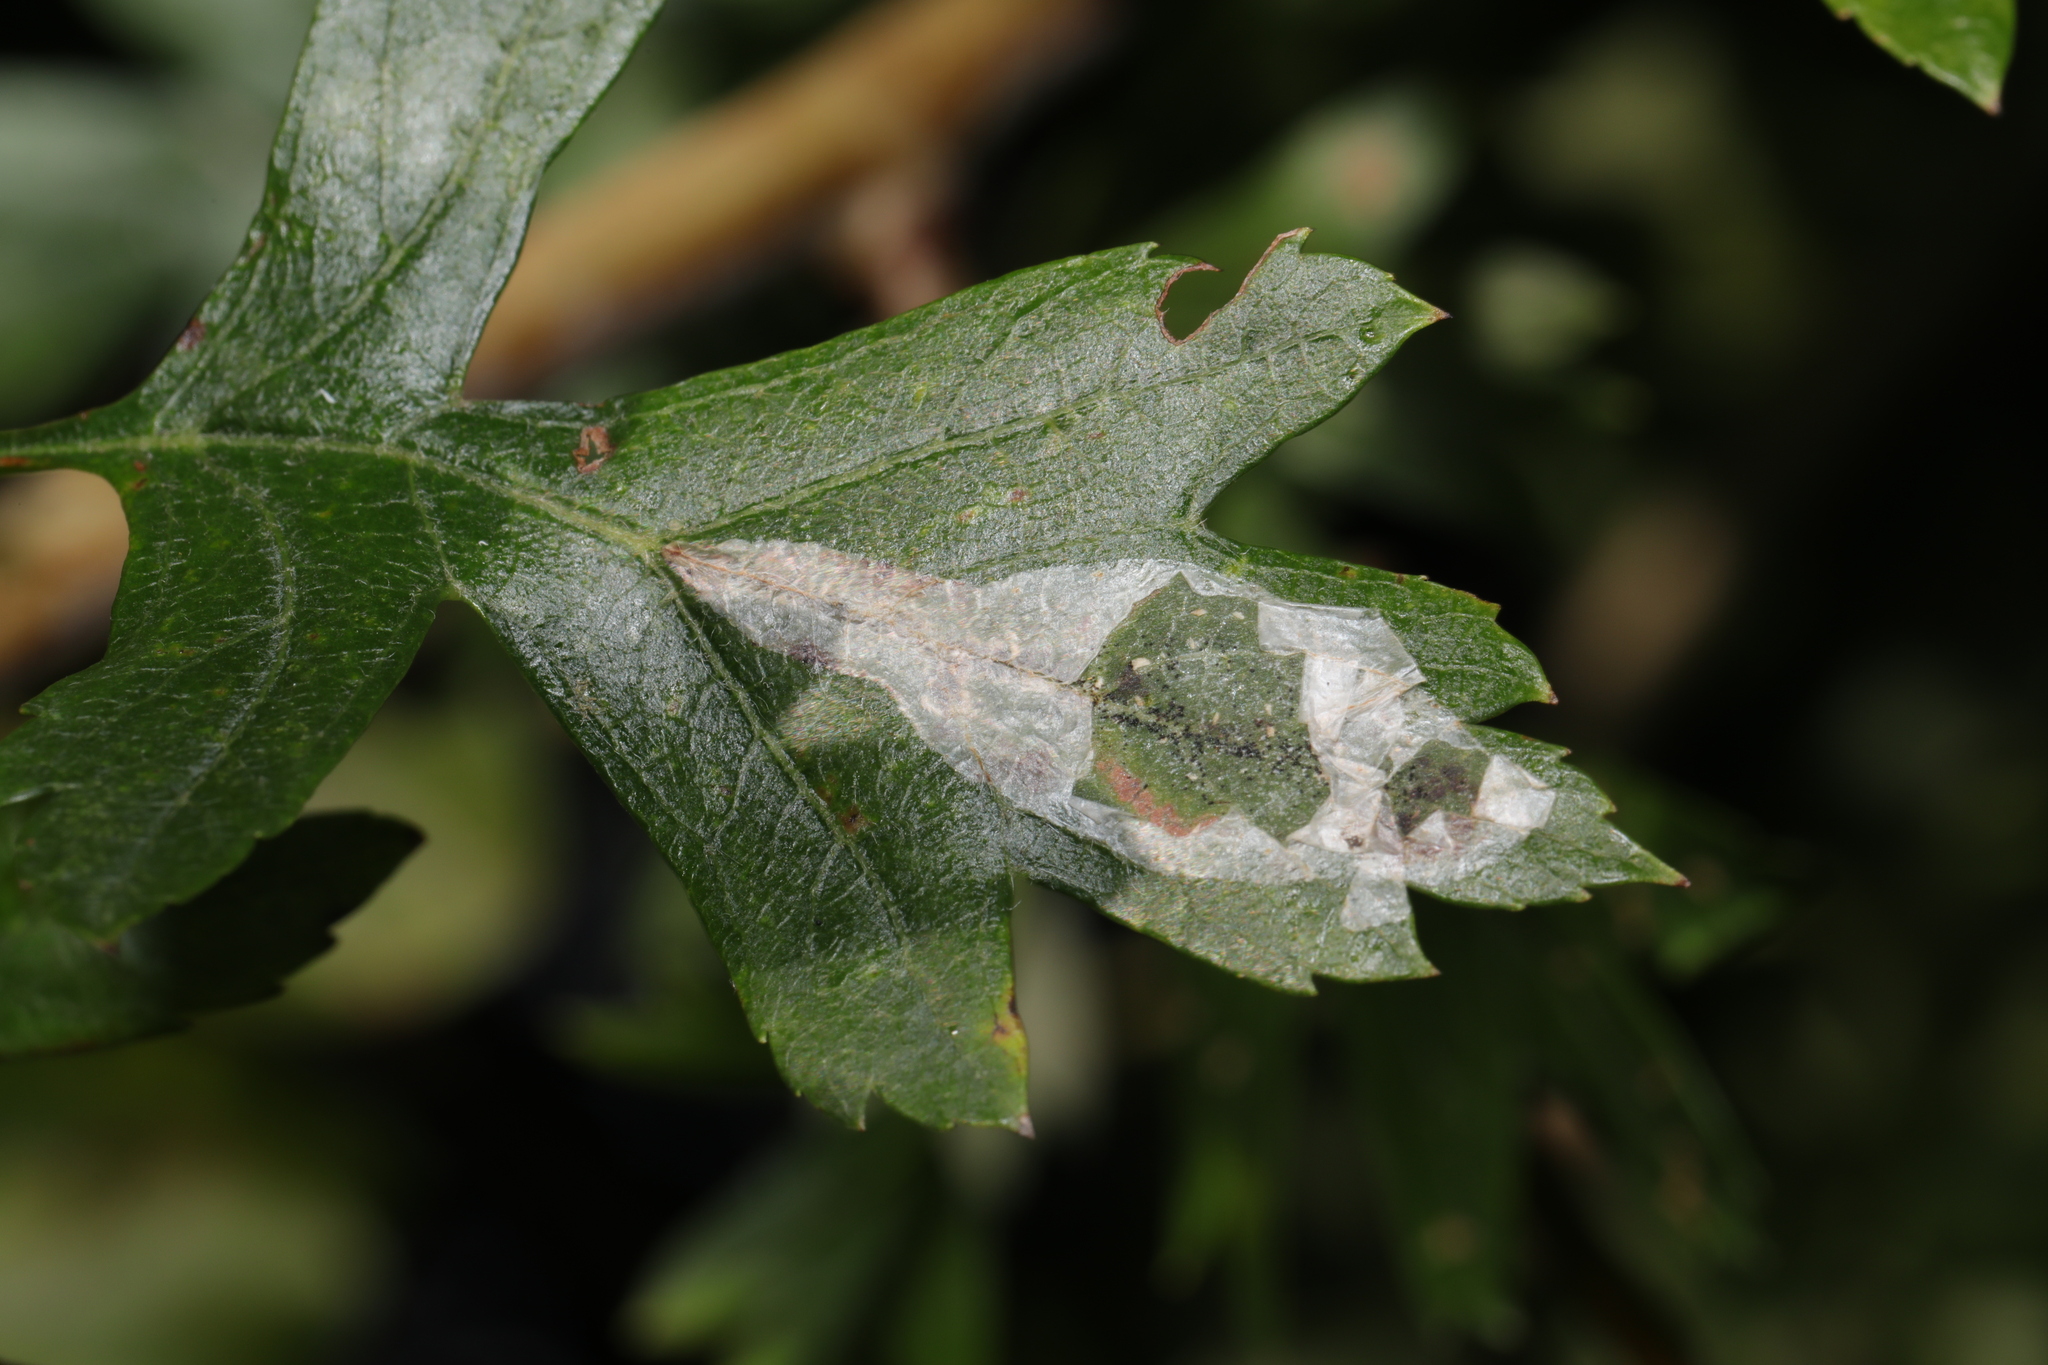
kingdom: Animalia
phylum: Arthropoda
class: Insecta
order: Lepidoptera
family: Gracillariidae
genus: Phyllonorycter
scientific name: Phyllonorycter leucographella
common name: Firethorn leaf-miner
